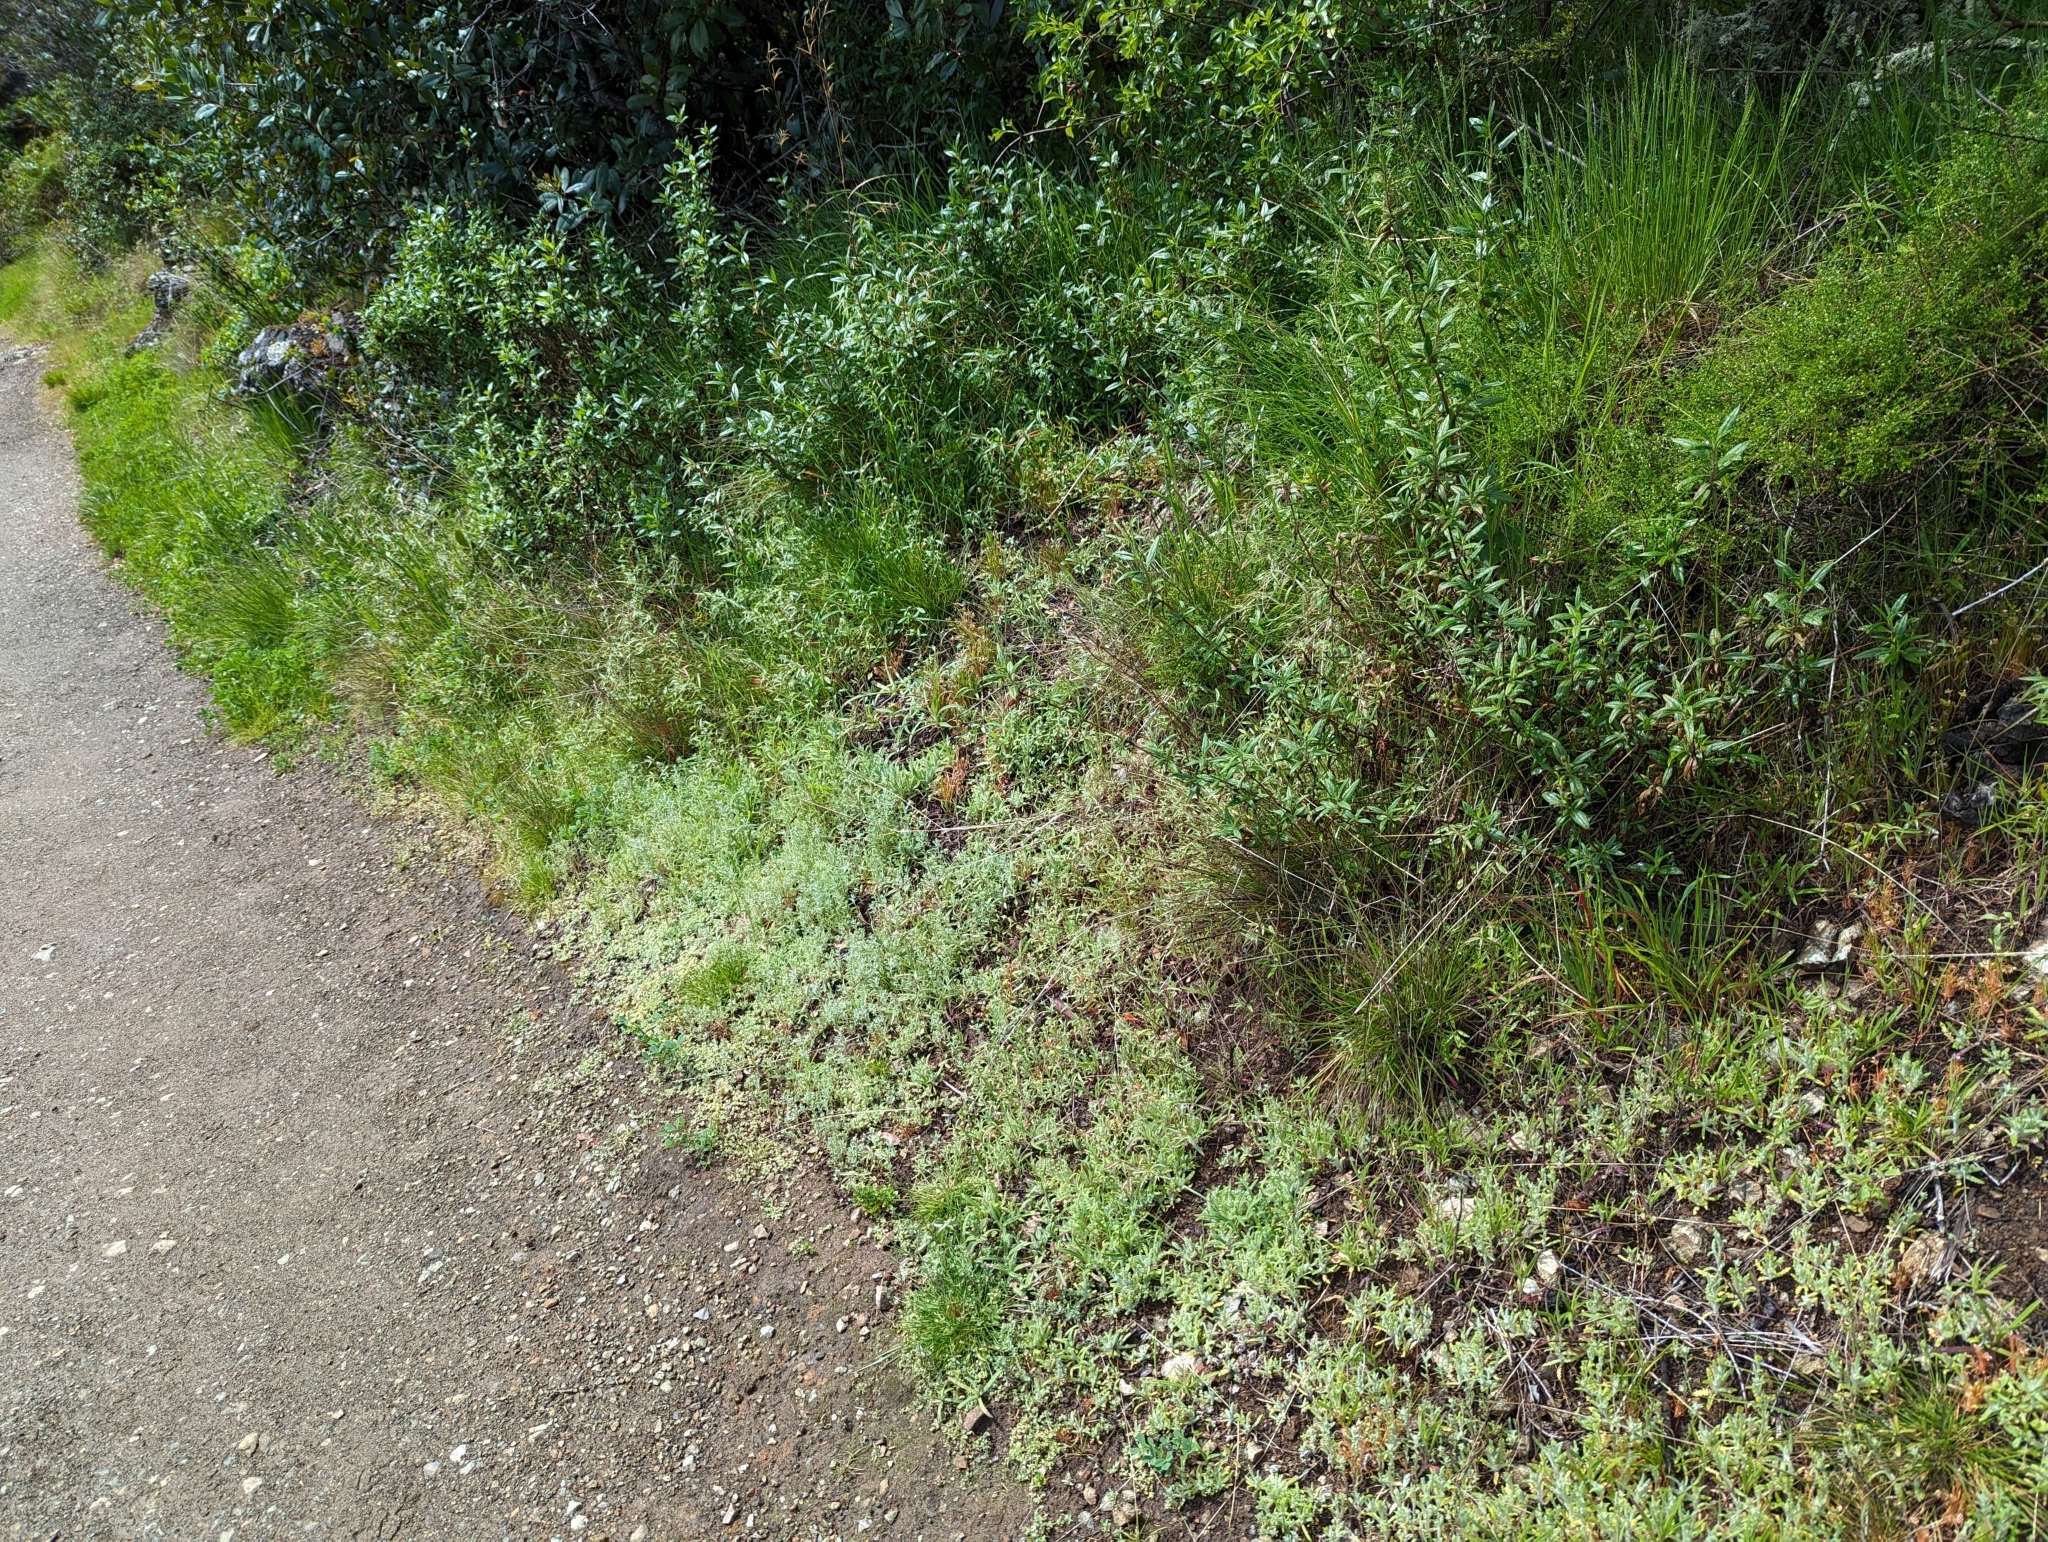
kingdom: Plantae
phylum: Tracheophyta
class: Magnoliopsida
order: Asterales
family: Asteraceae
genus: Madia
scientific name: Madia gracilis
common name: Grassy tarweed
